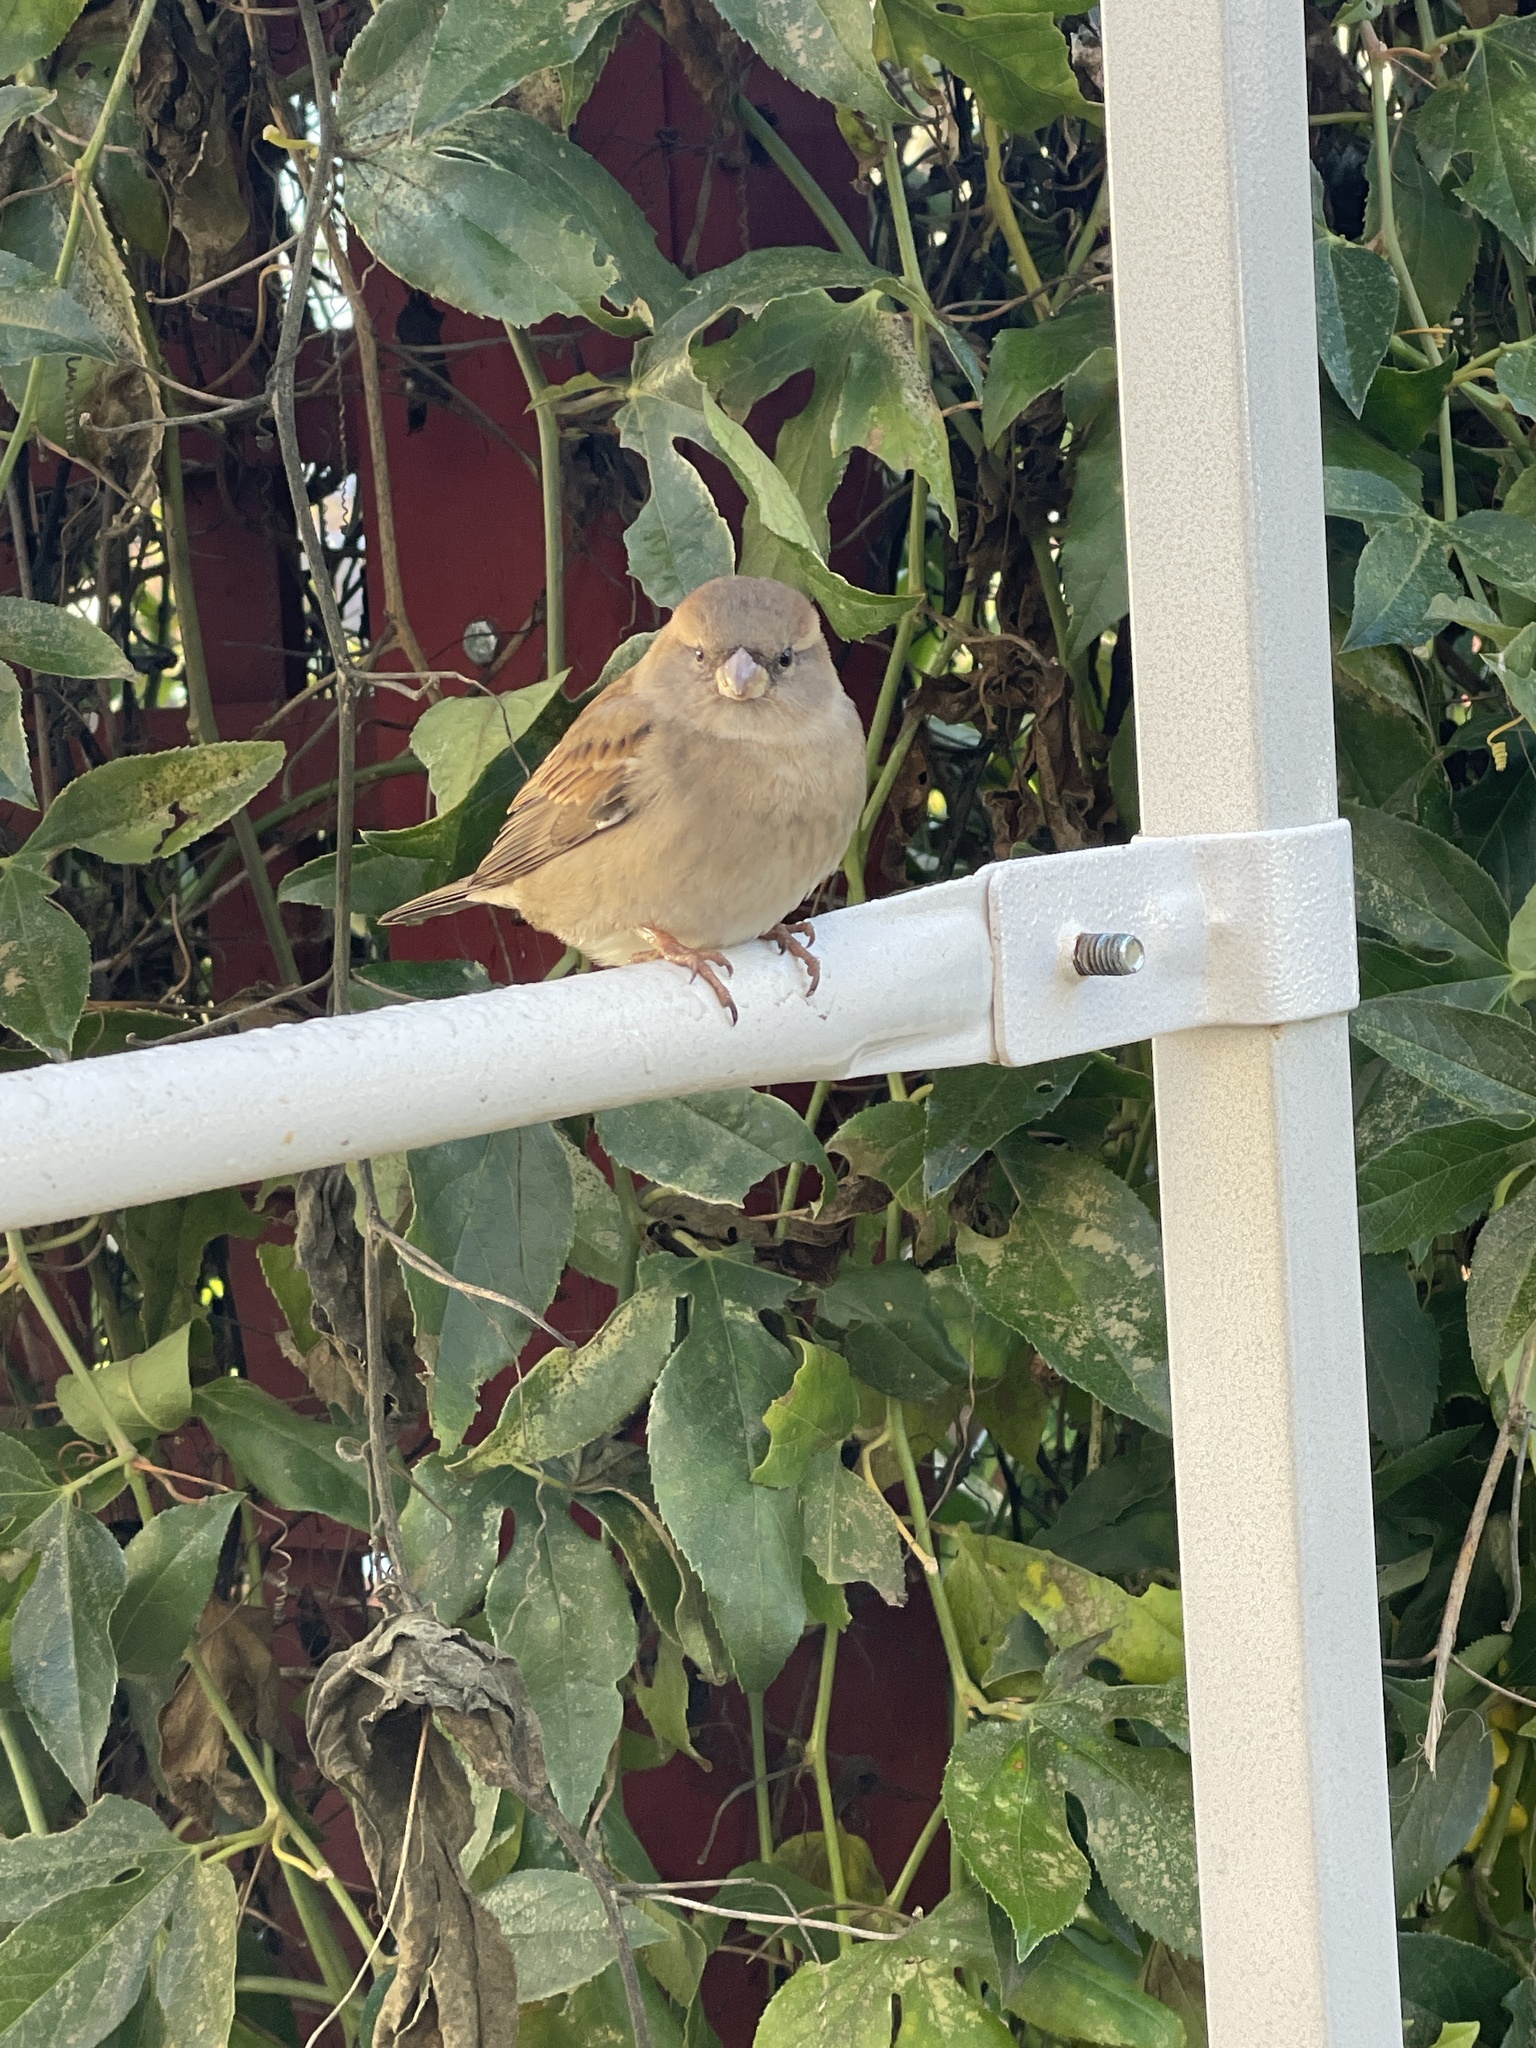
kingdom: Animalia
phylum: Chordata
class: Aves
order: Passeriformes
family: Passeridae
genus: Passer
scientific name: Passer domesticus
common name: House sparrow
